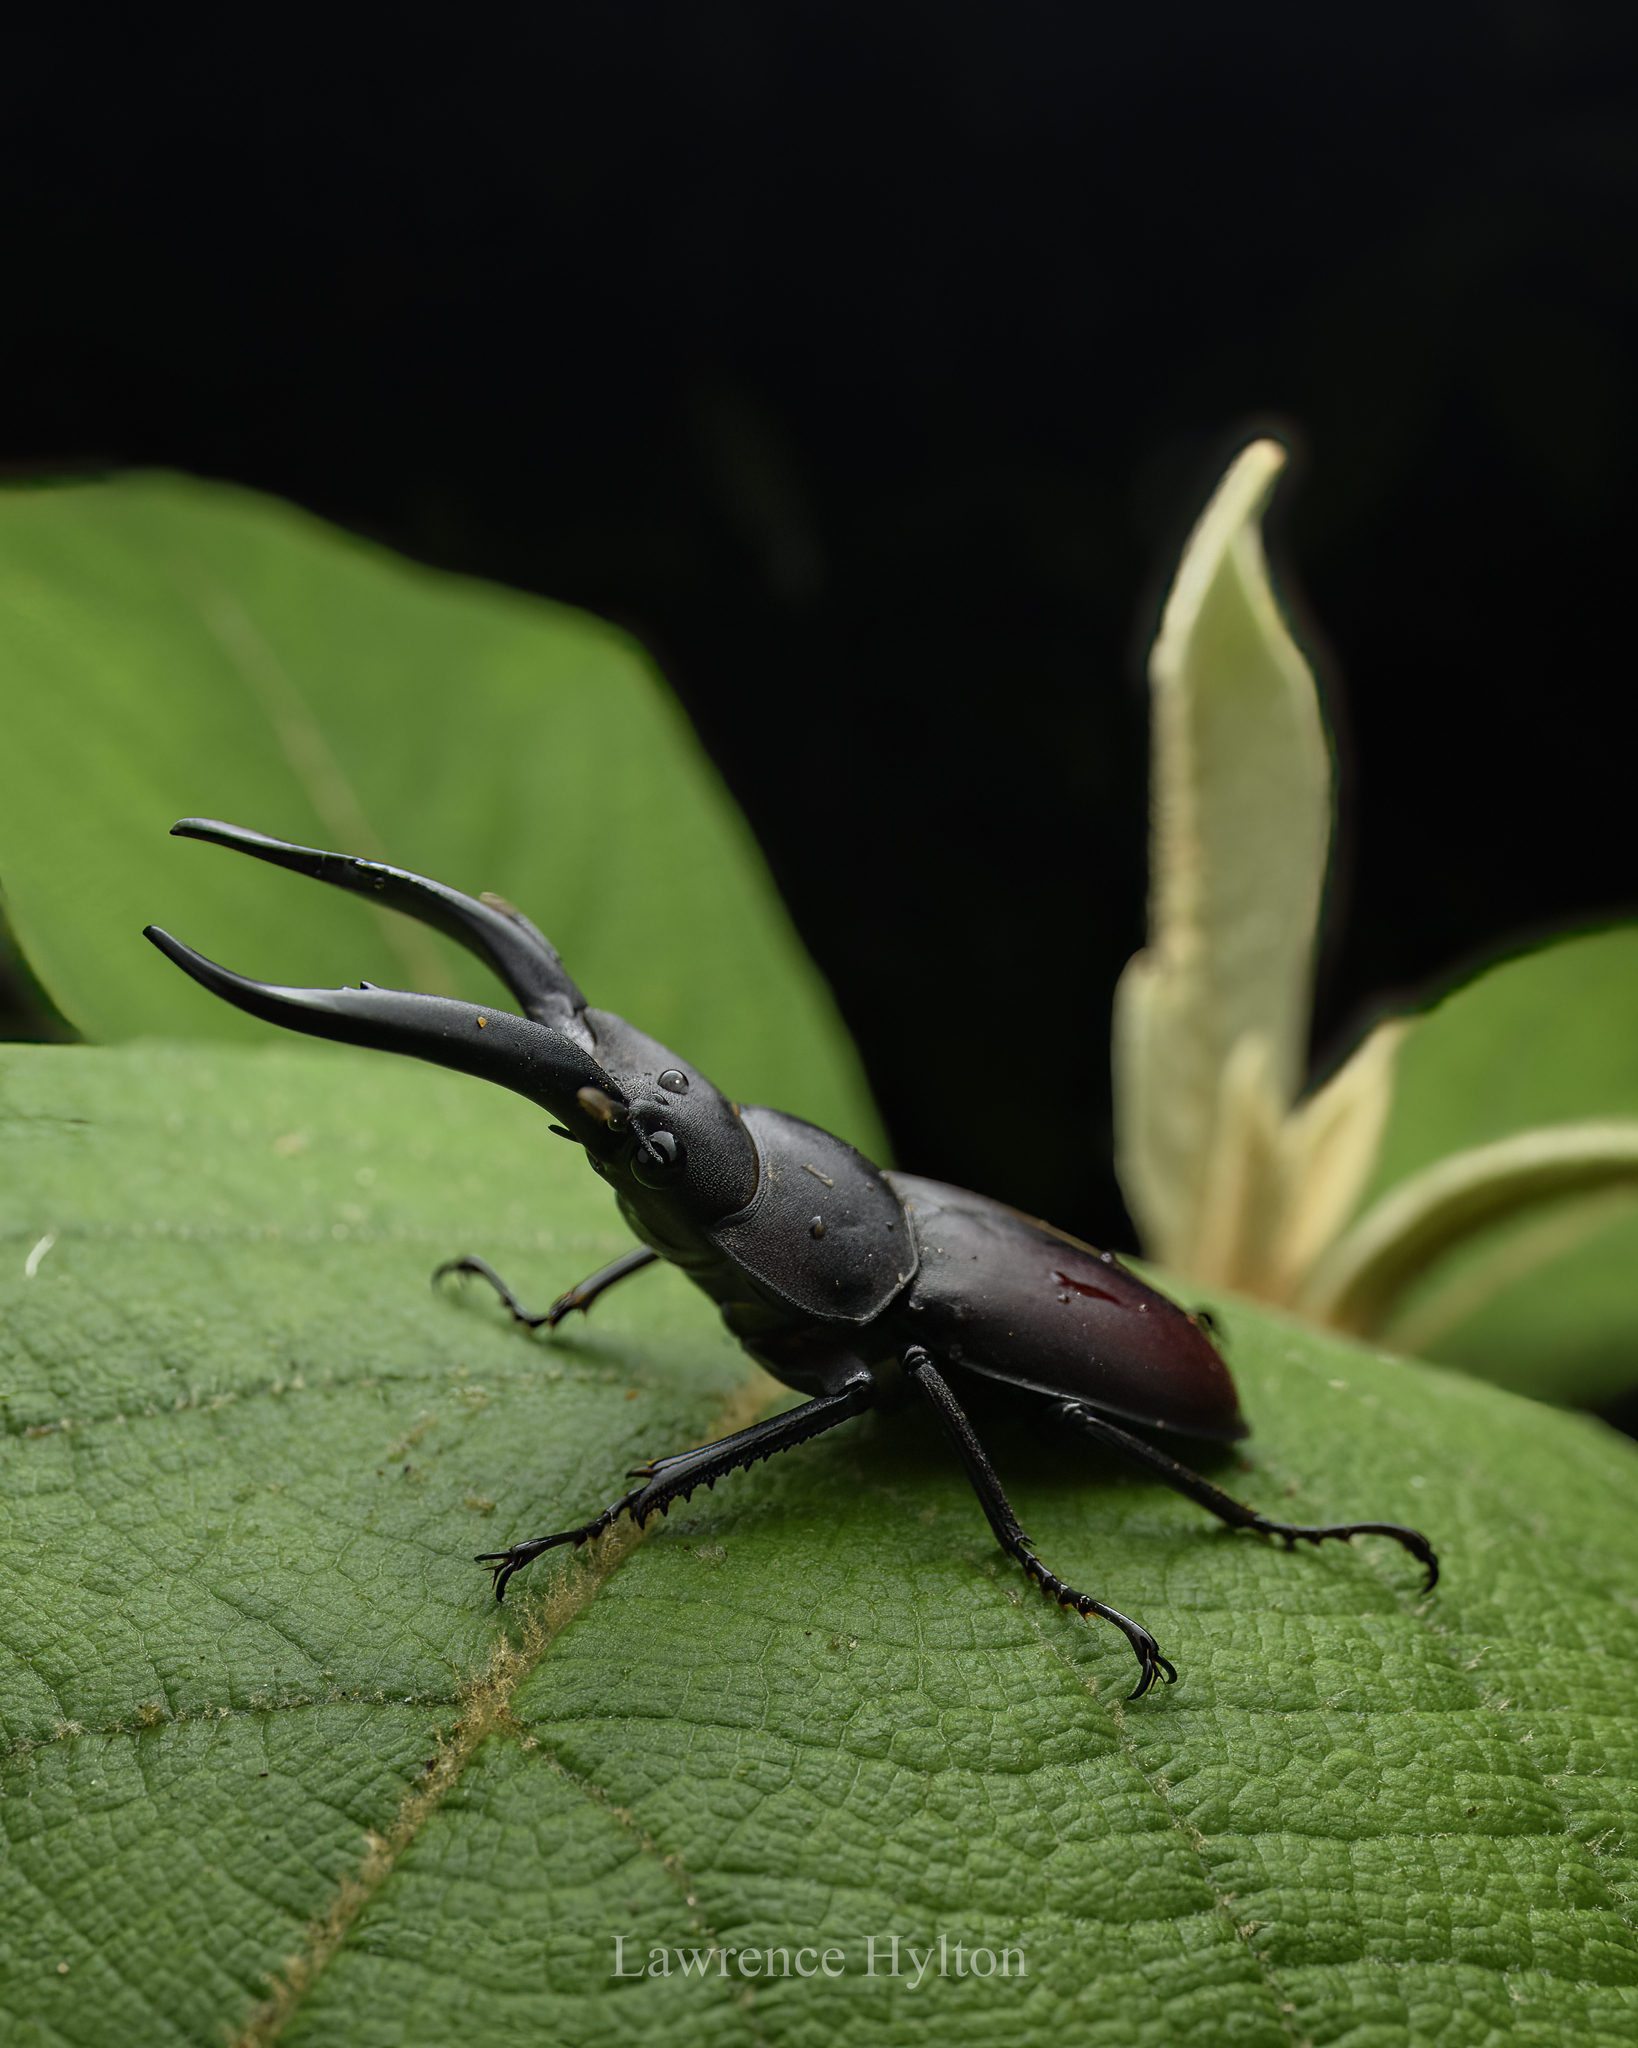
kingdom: Animalia
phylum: Arthropoda
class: Insecta
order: Coleoptera
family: Lucanidae
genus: Epidorcus
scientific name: Epidorcus gracilis
